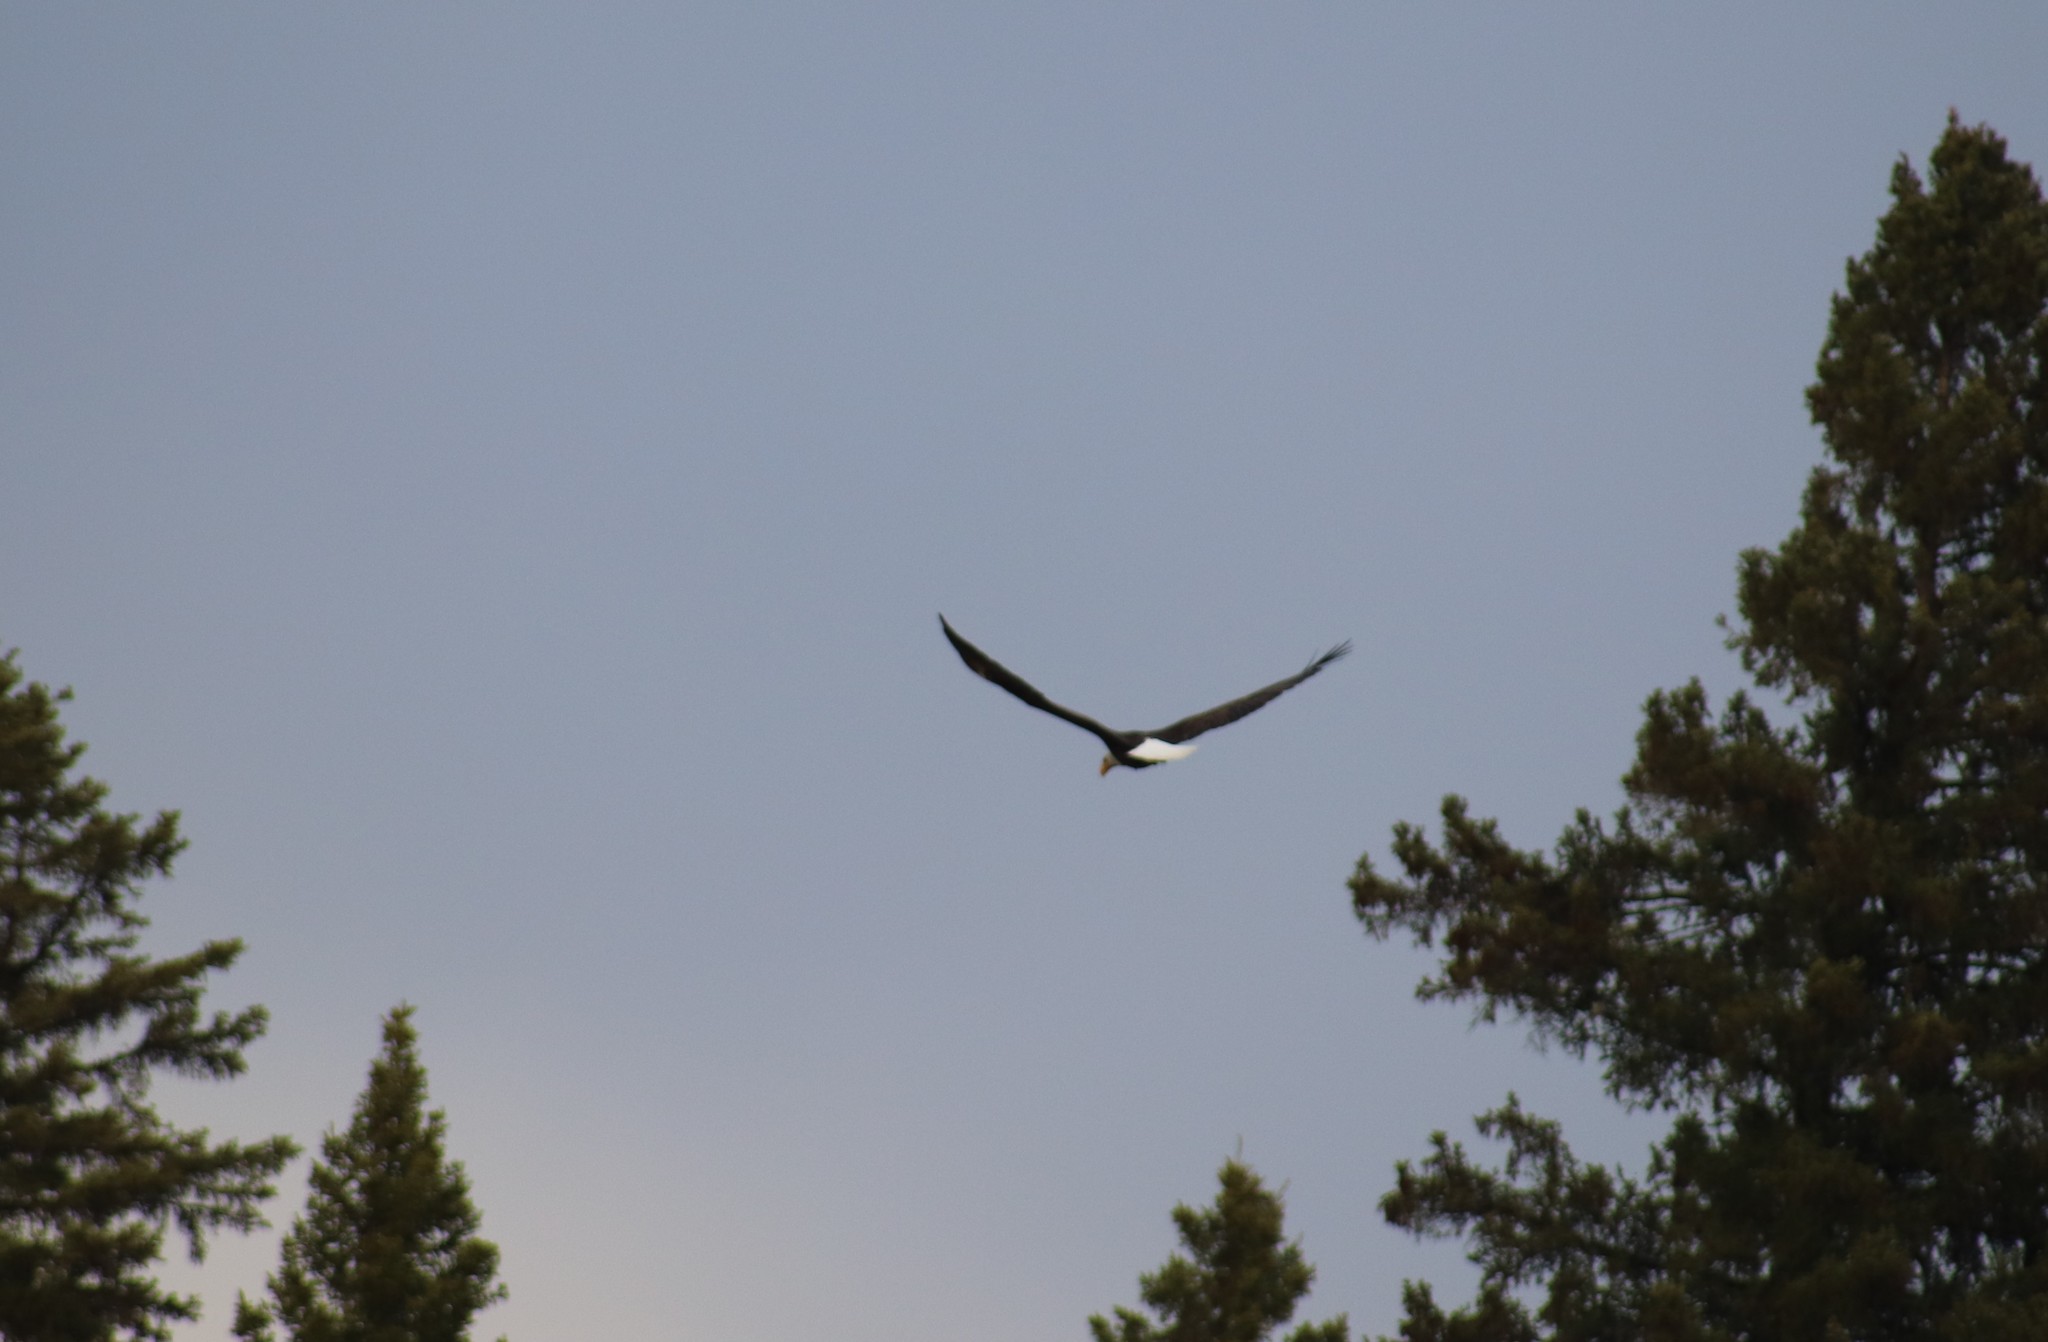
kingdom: Animalia
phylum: Chordata
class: Aves
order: Accipitriformes
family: Accipitridae
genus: Haliaeetus
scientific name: Haliaeetus leucocephalus
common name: Bald eagle
